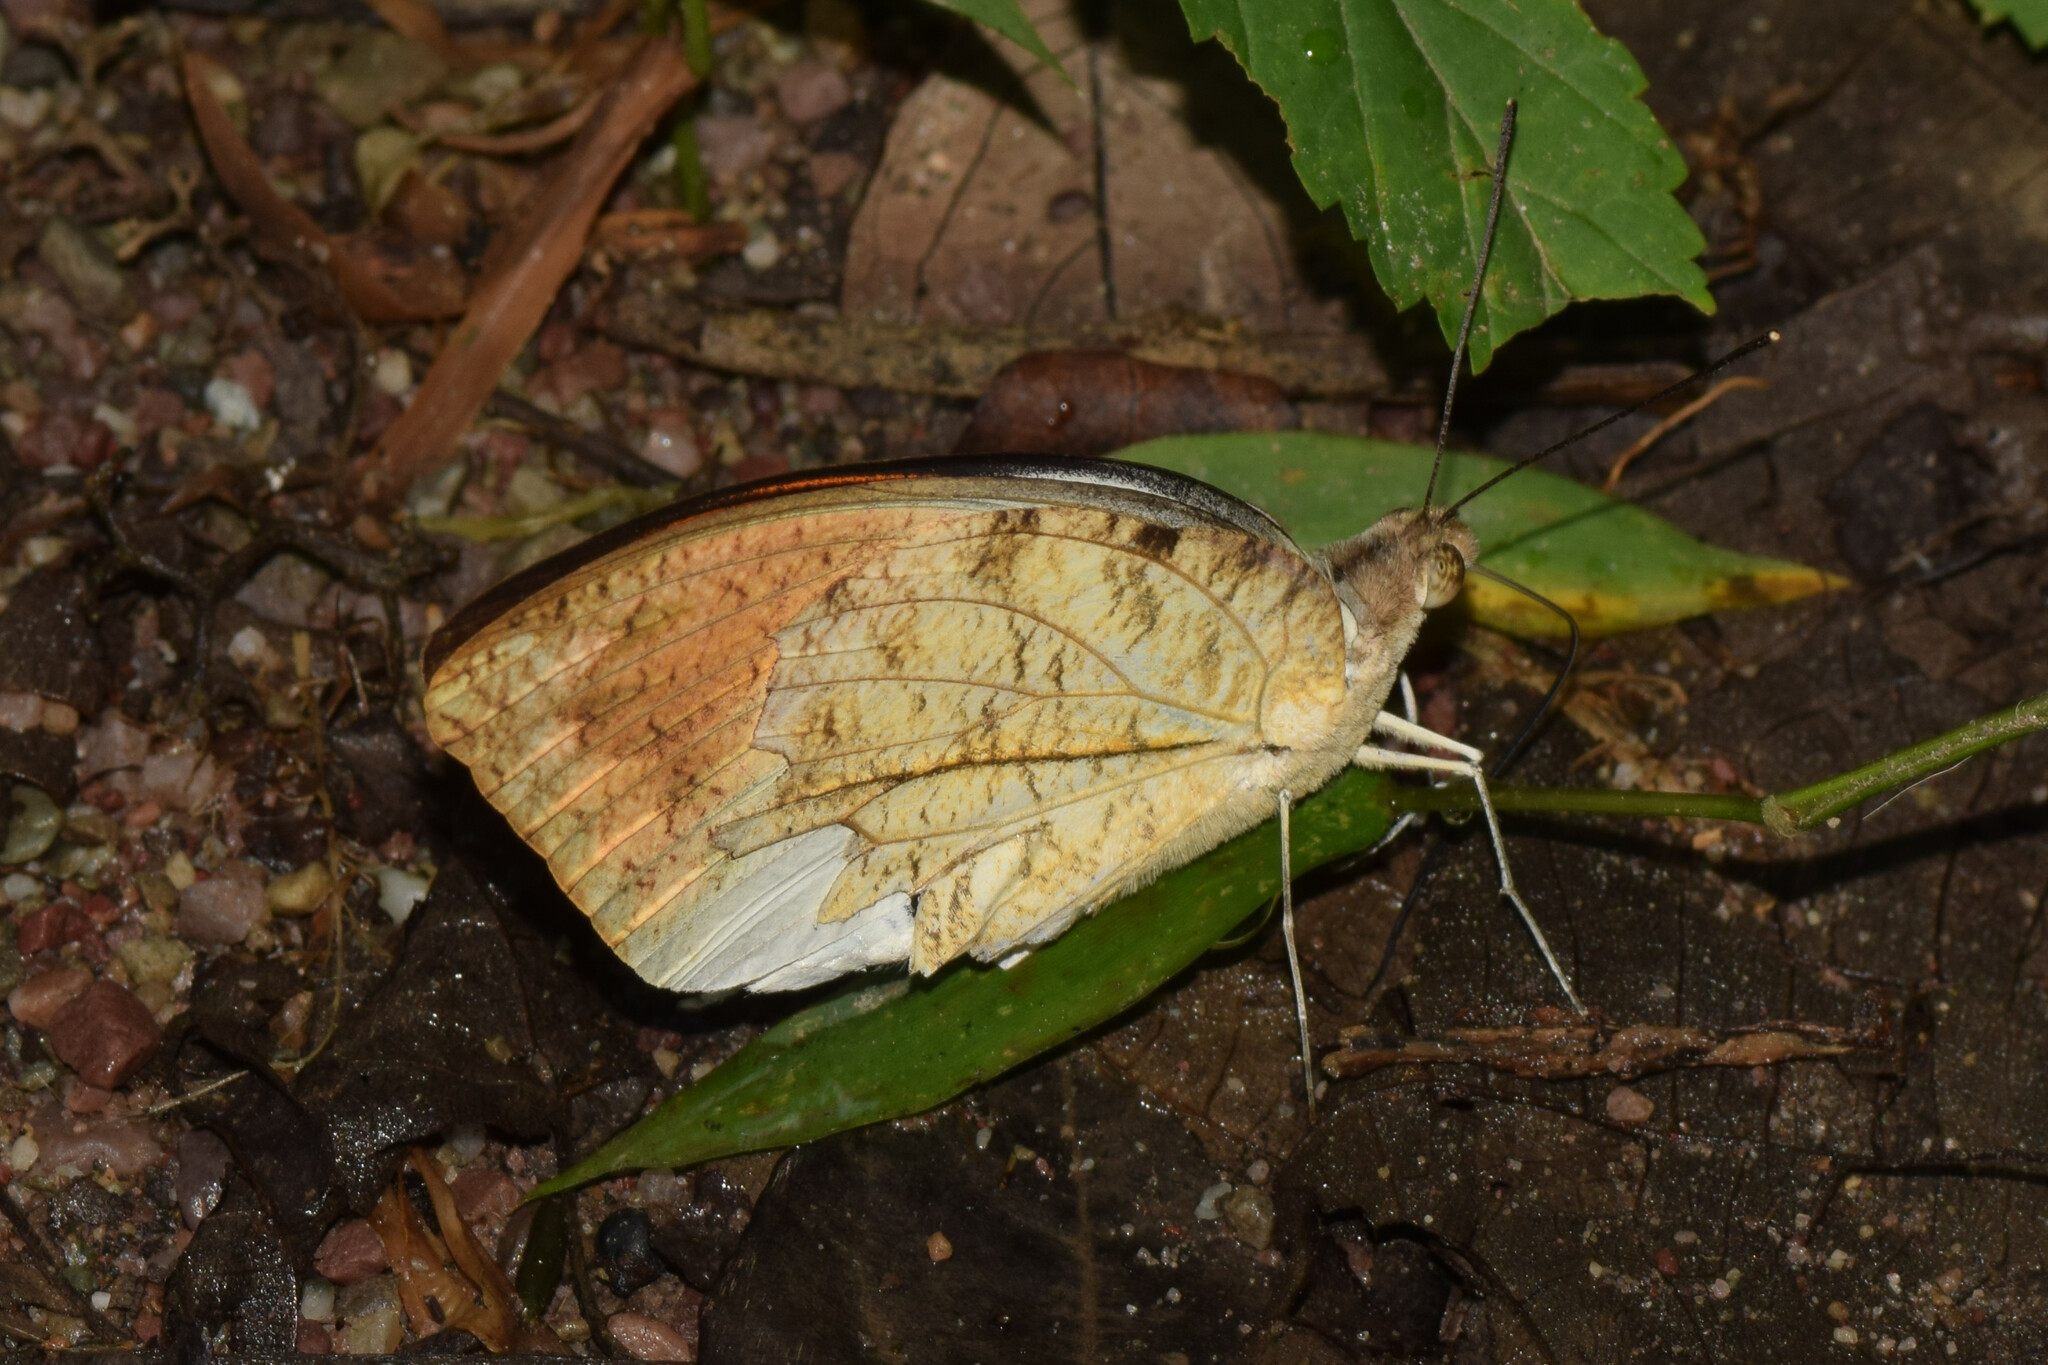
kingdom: Animalia
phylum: Arthropoda
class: Insecta
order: Lepidoptera
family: Pieridae
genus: Hebomoia
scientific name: Hebomoia glaucippe
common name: Great orange tip
